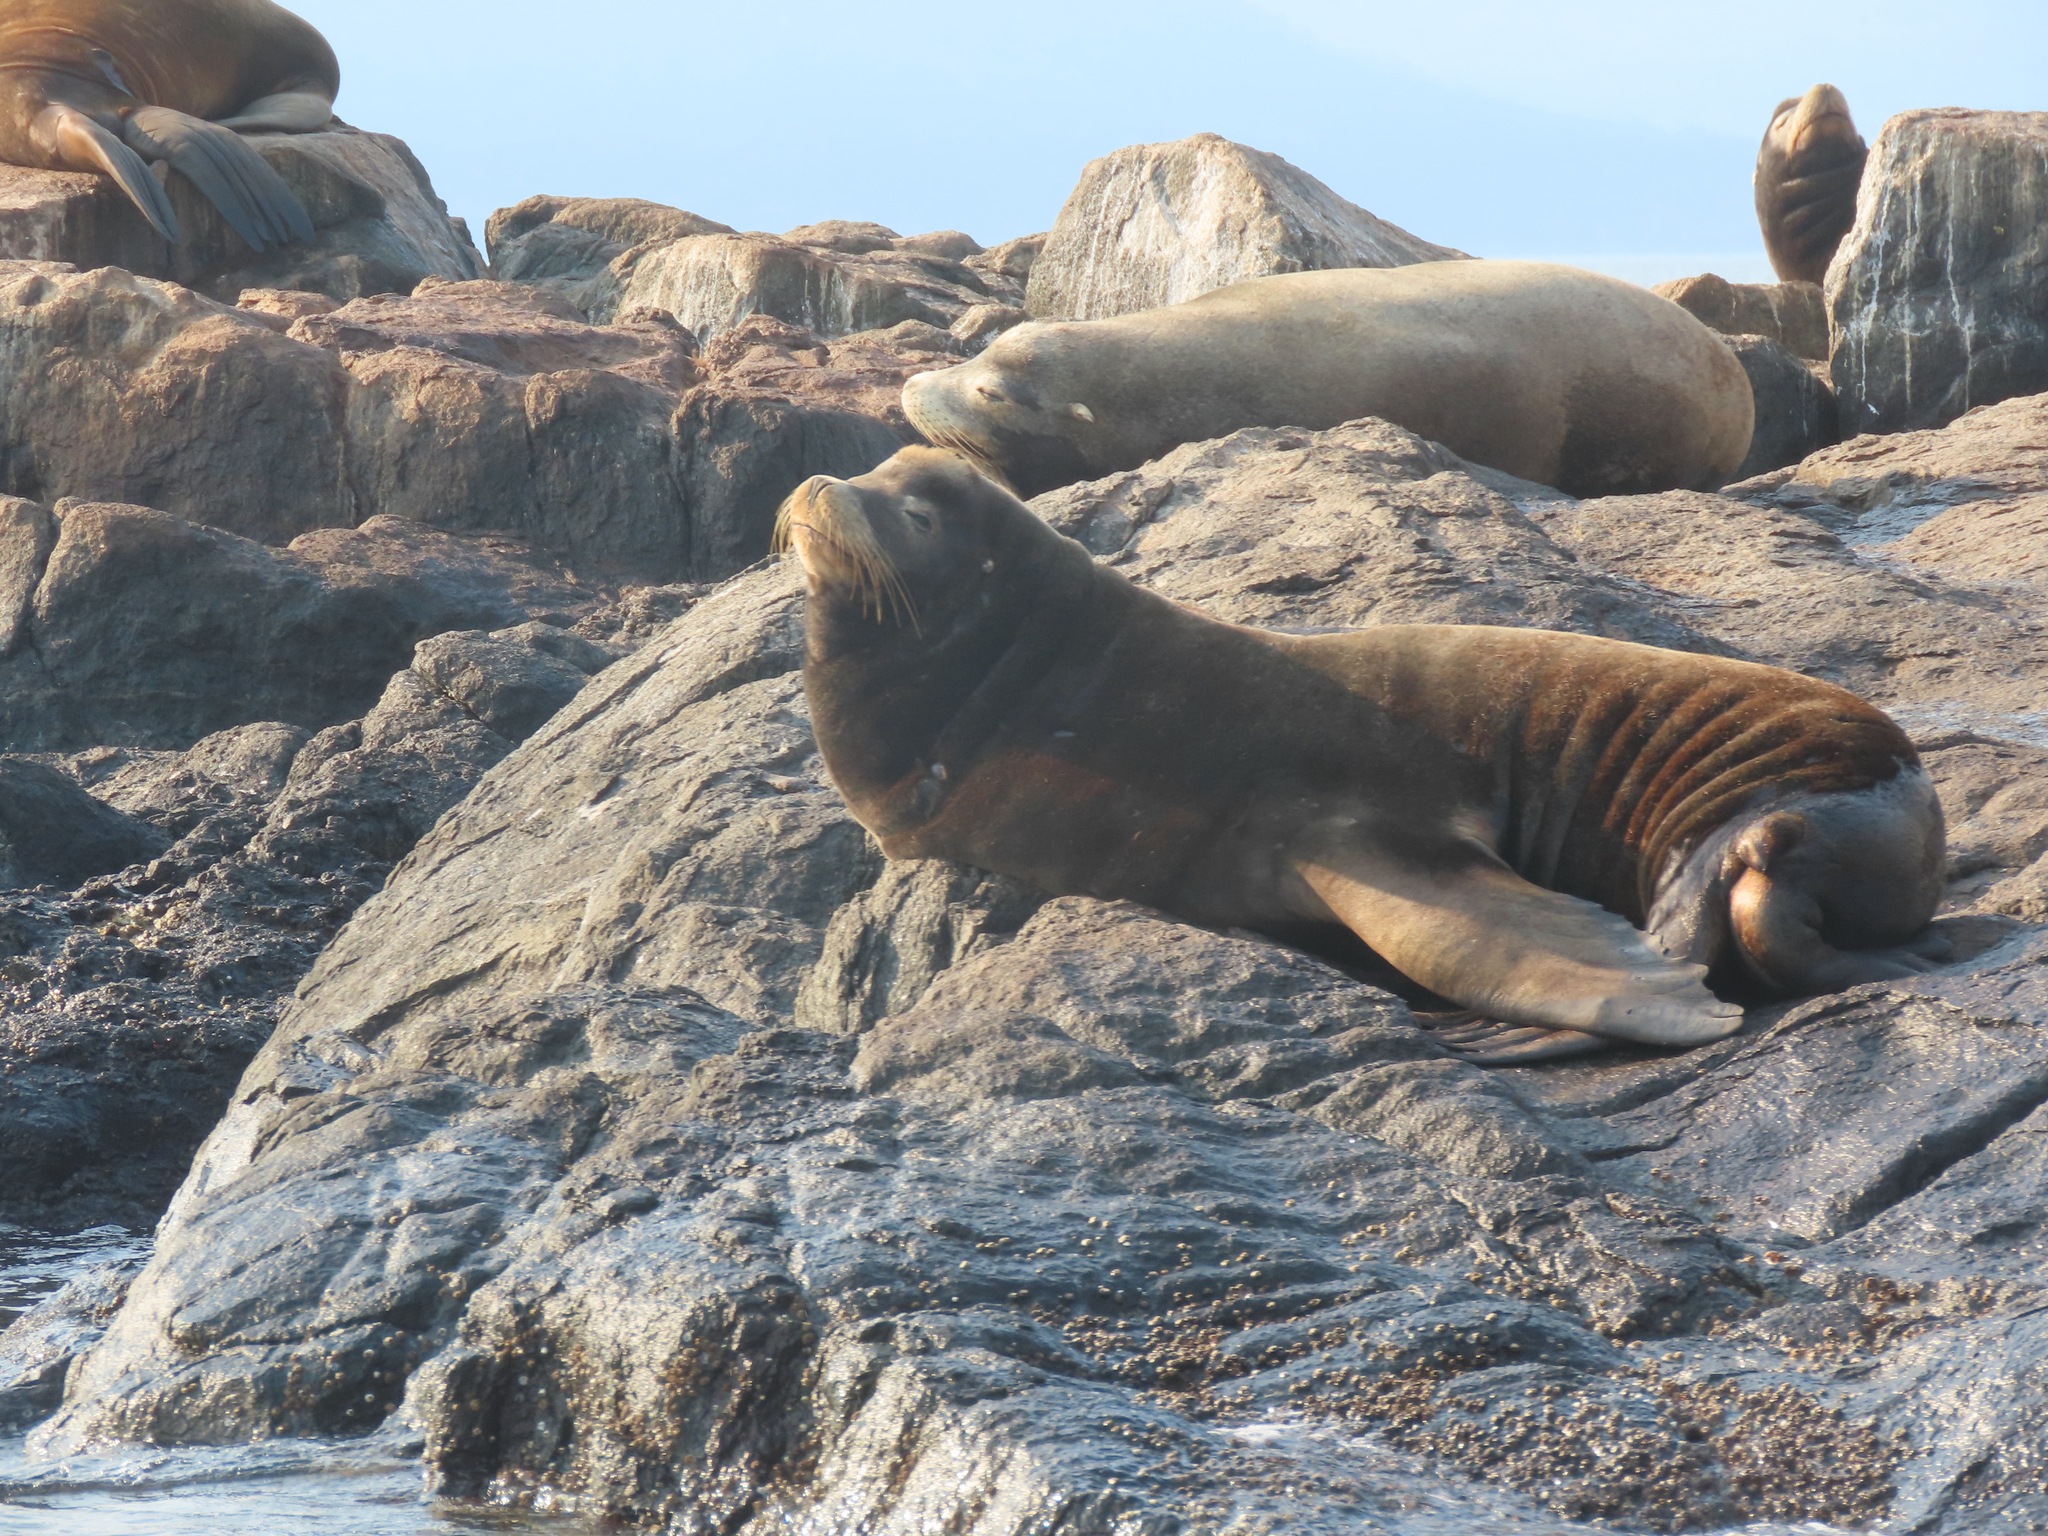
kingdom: Animalia
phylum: Chordata
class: Mammalia
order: Carnivora
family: Otariidae
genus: Zalophus
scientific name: Zalophus californianus
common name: California sea lion
